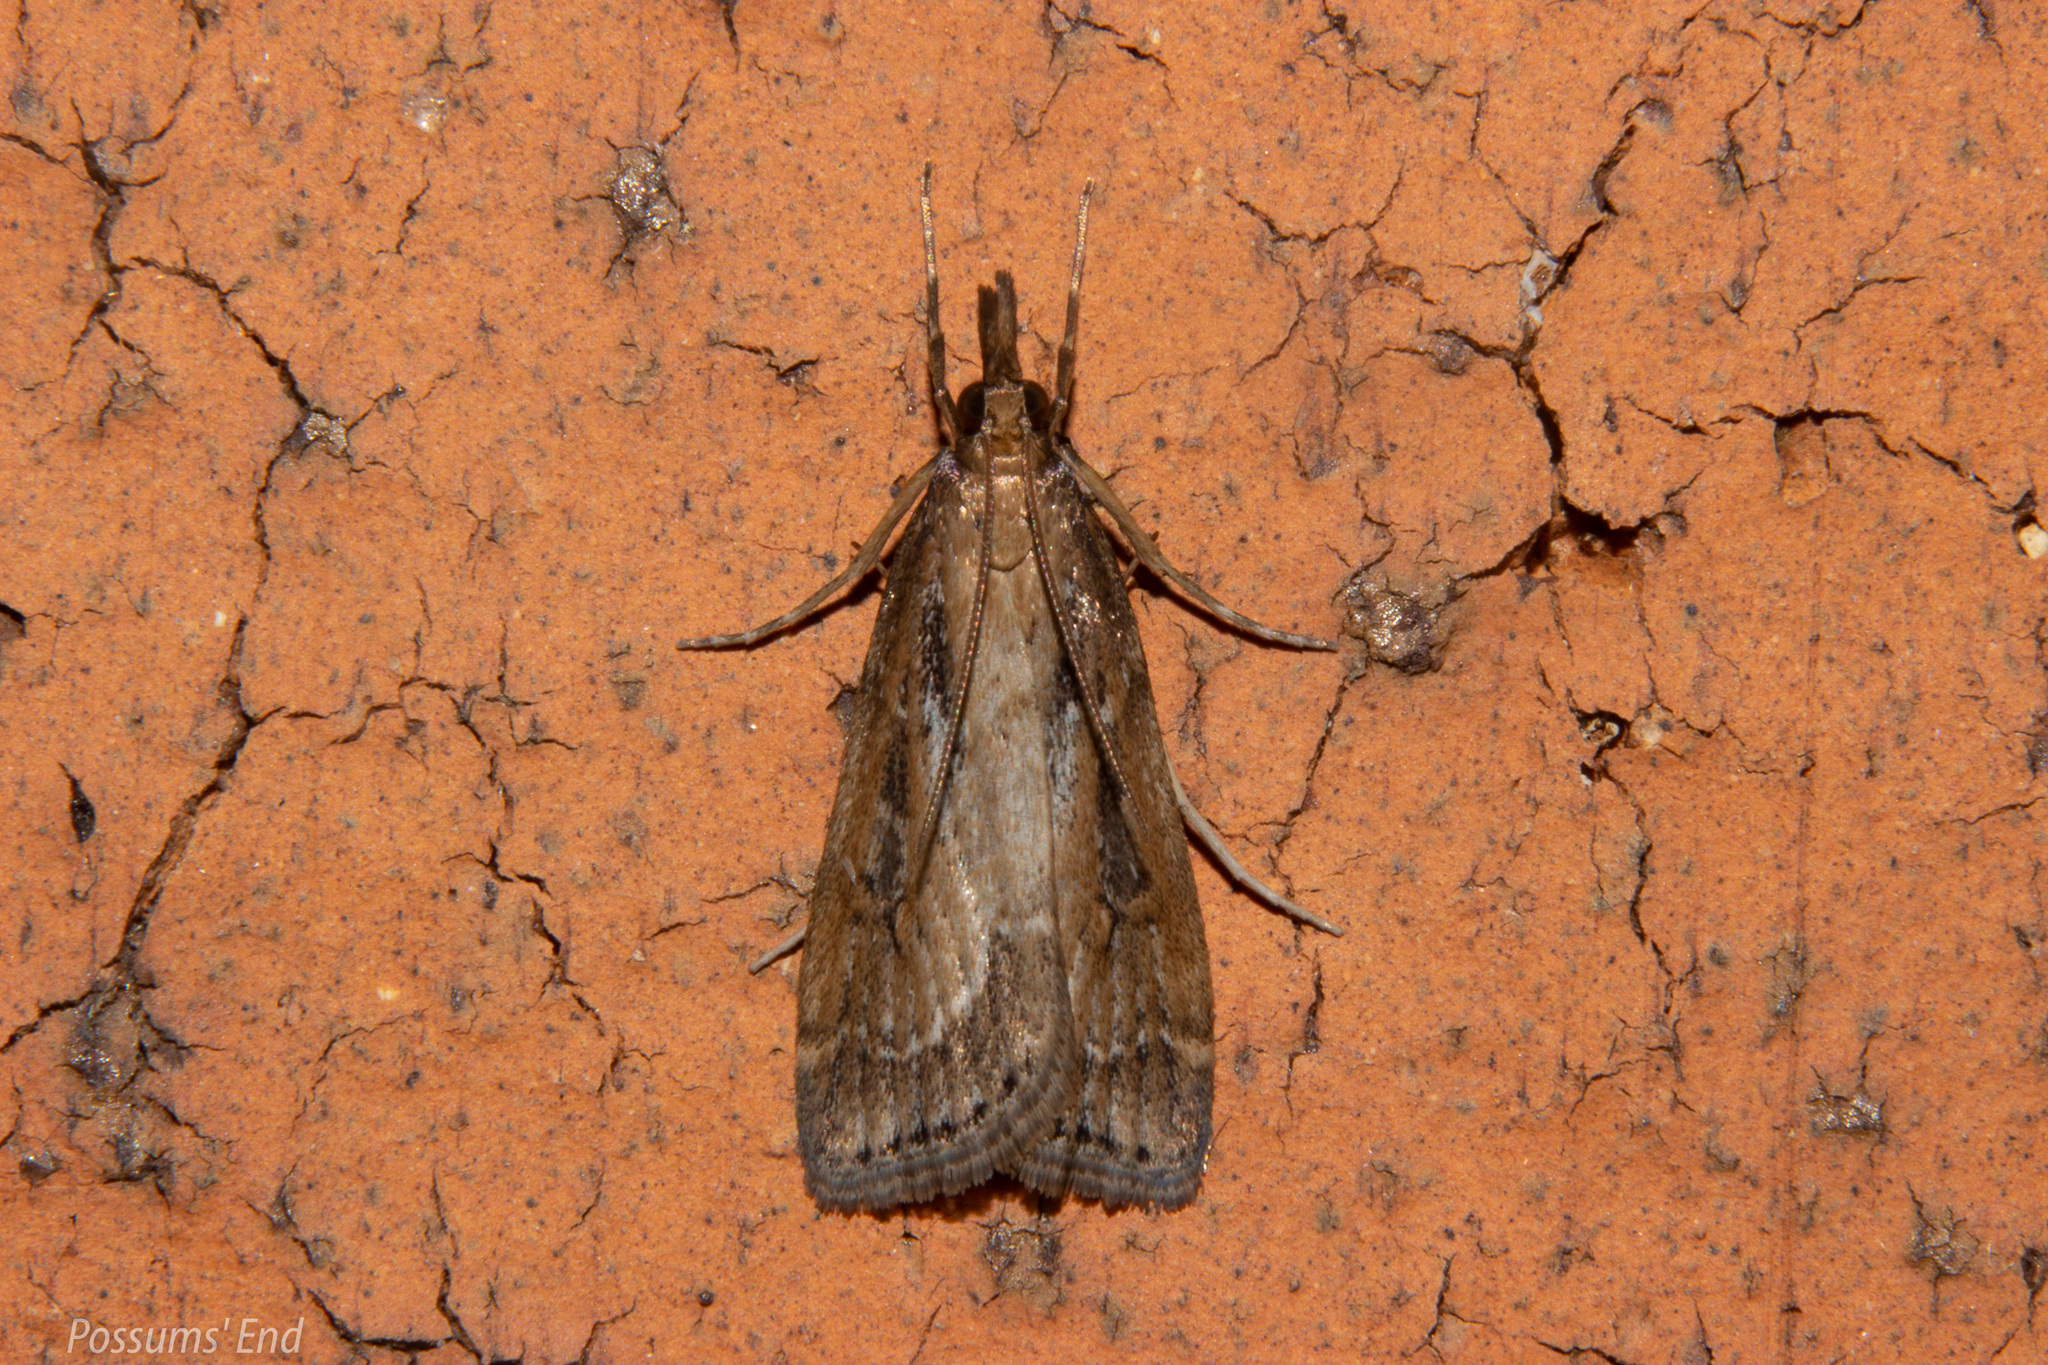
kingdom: Animalia
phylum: Arthropoda
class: Insecta
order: Lepidoptera
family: Crambidae
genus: Eudonia
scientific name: Eudonia octophora
